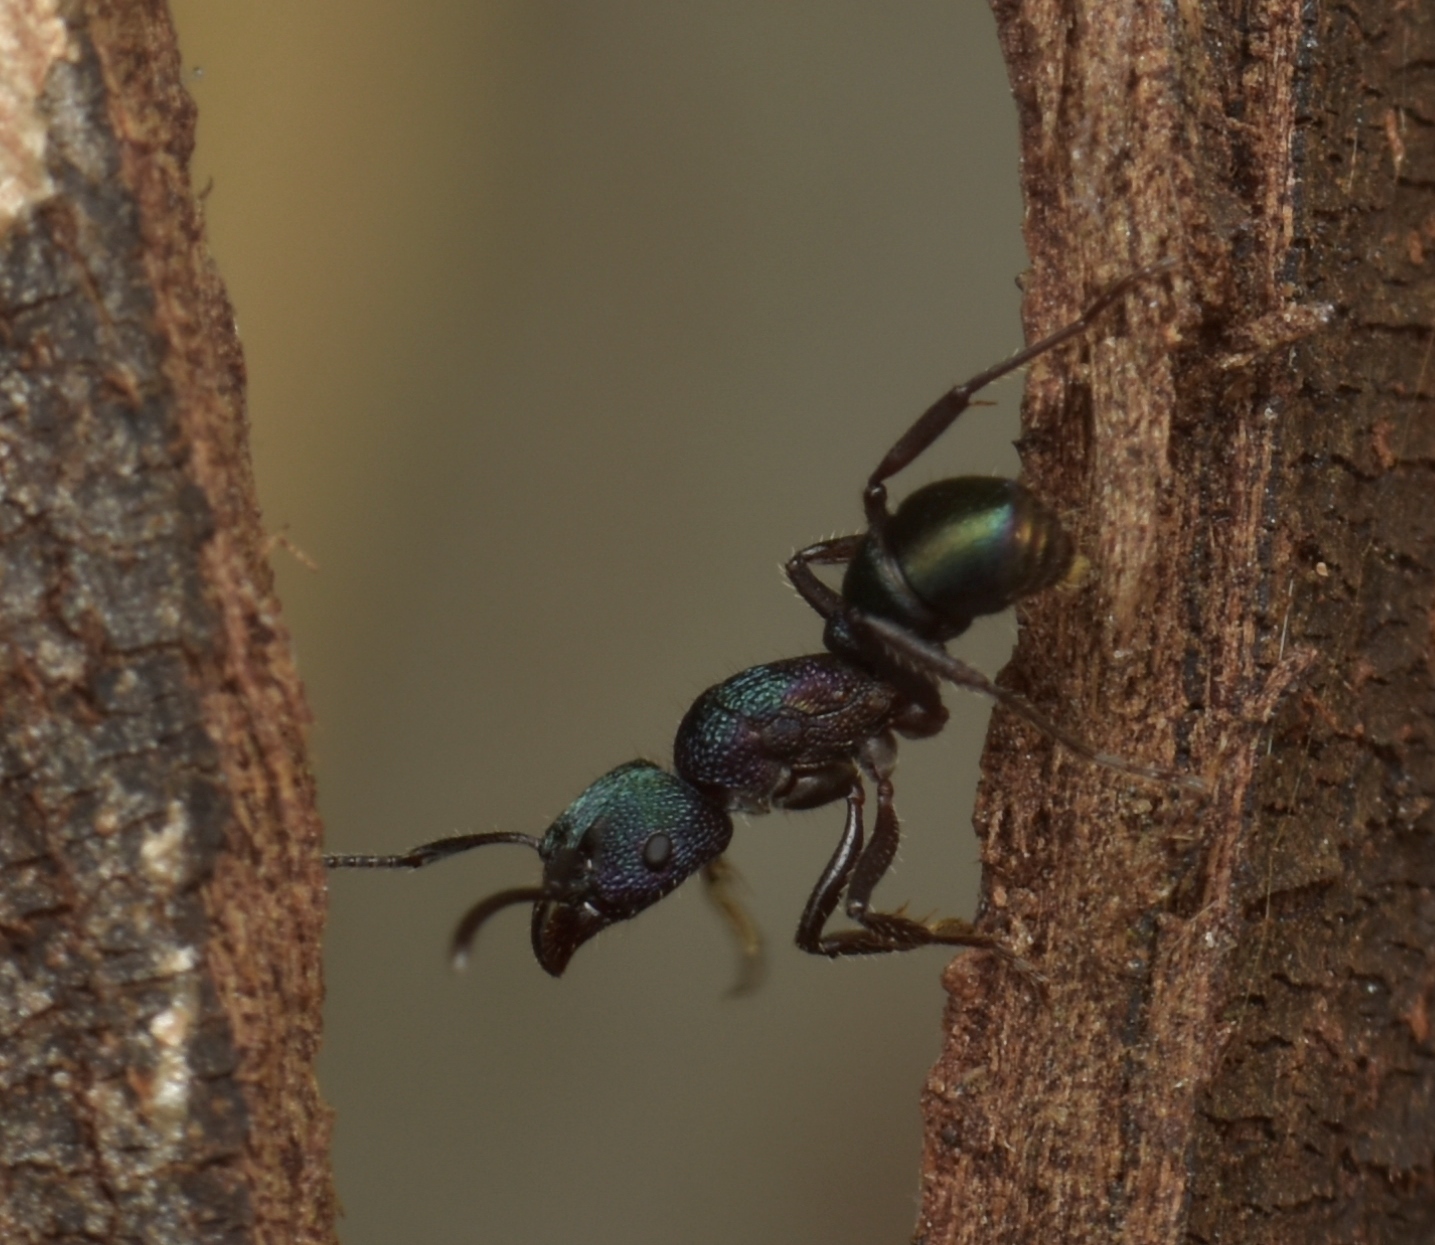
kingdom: Animalia
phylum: Arthropoda
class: Insecta
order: Hymenoptera
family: Formicidae
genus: Rhytidoponera
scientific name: Rhytidoponera metallica
